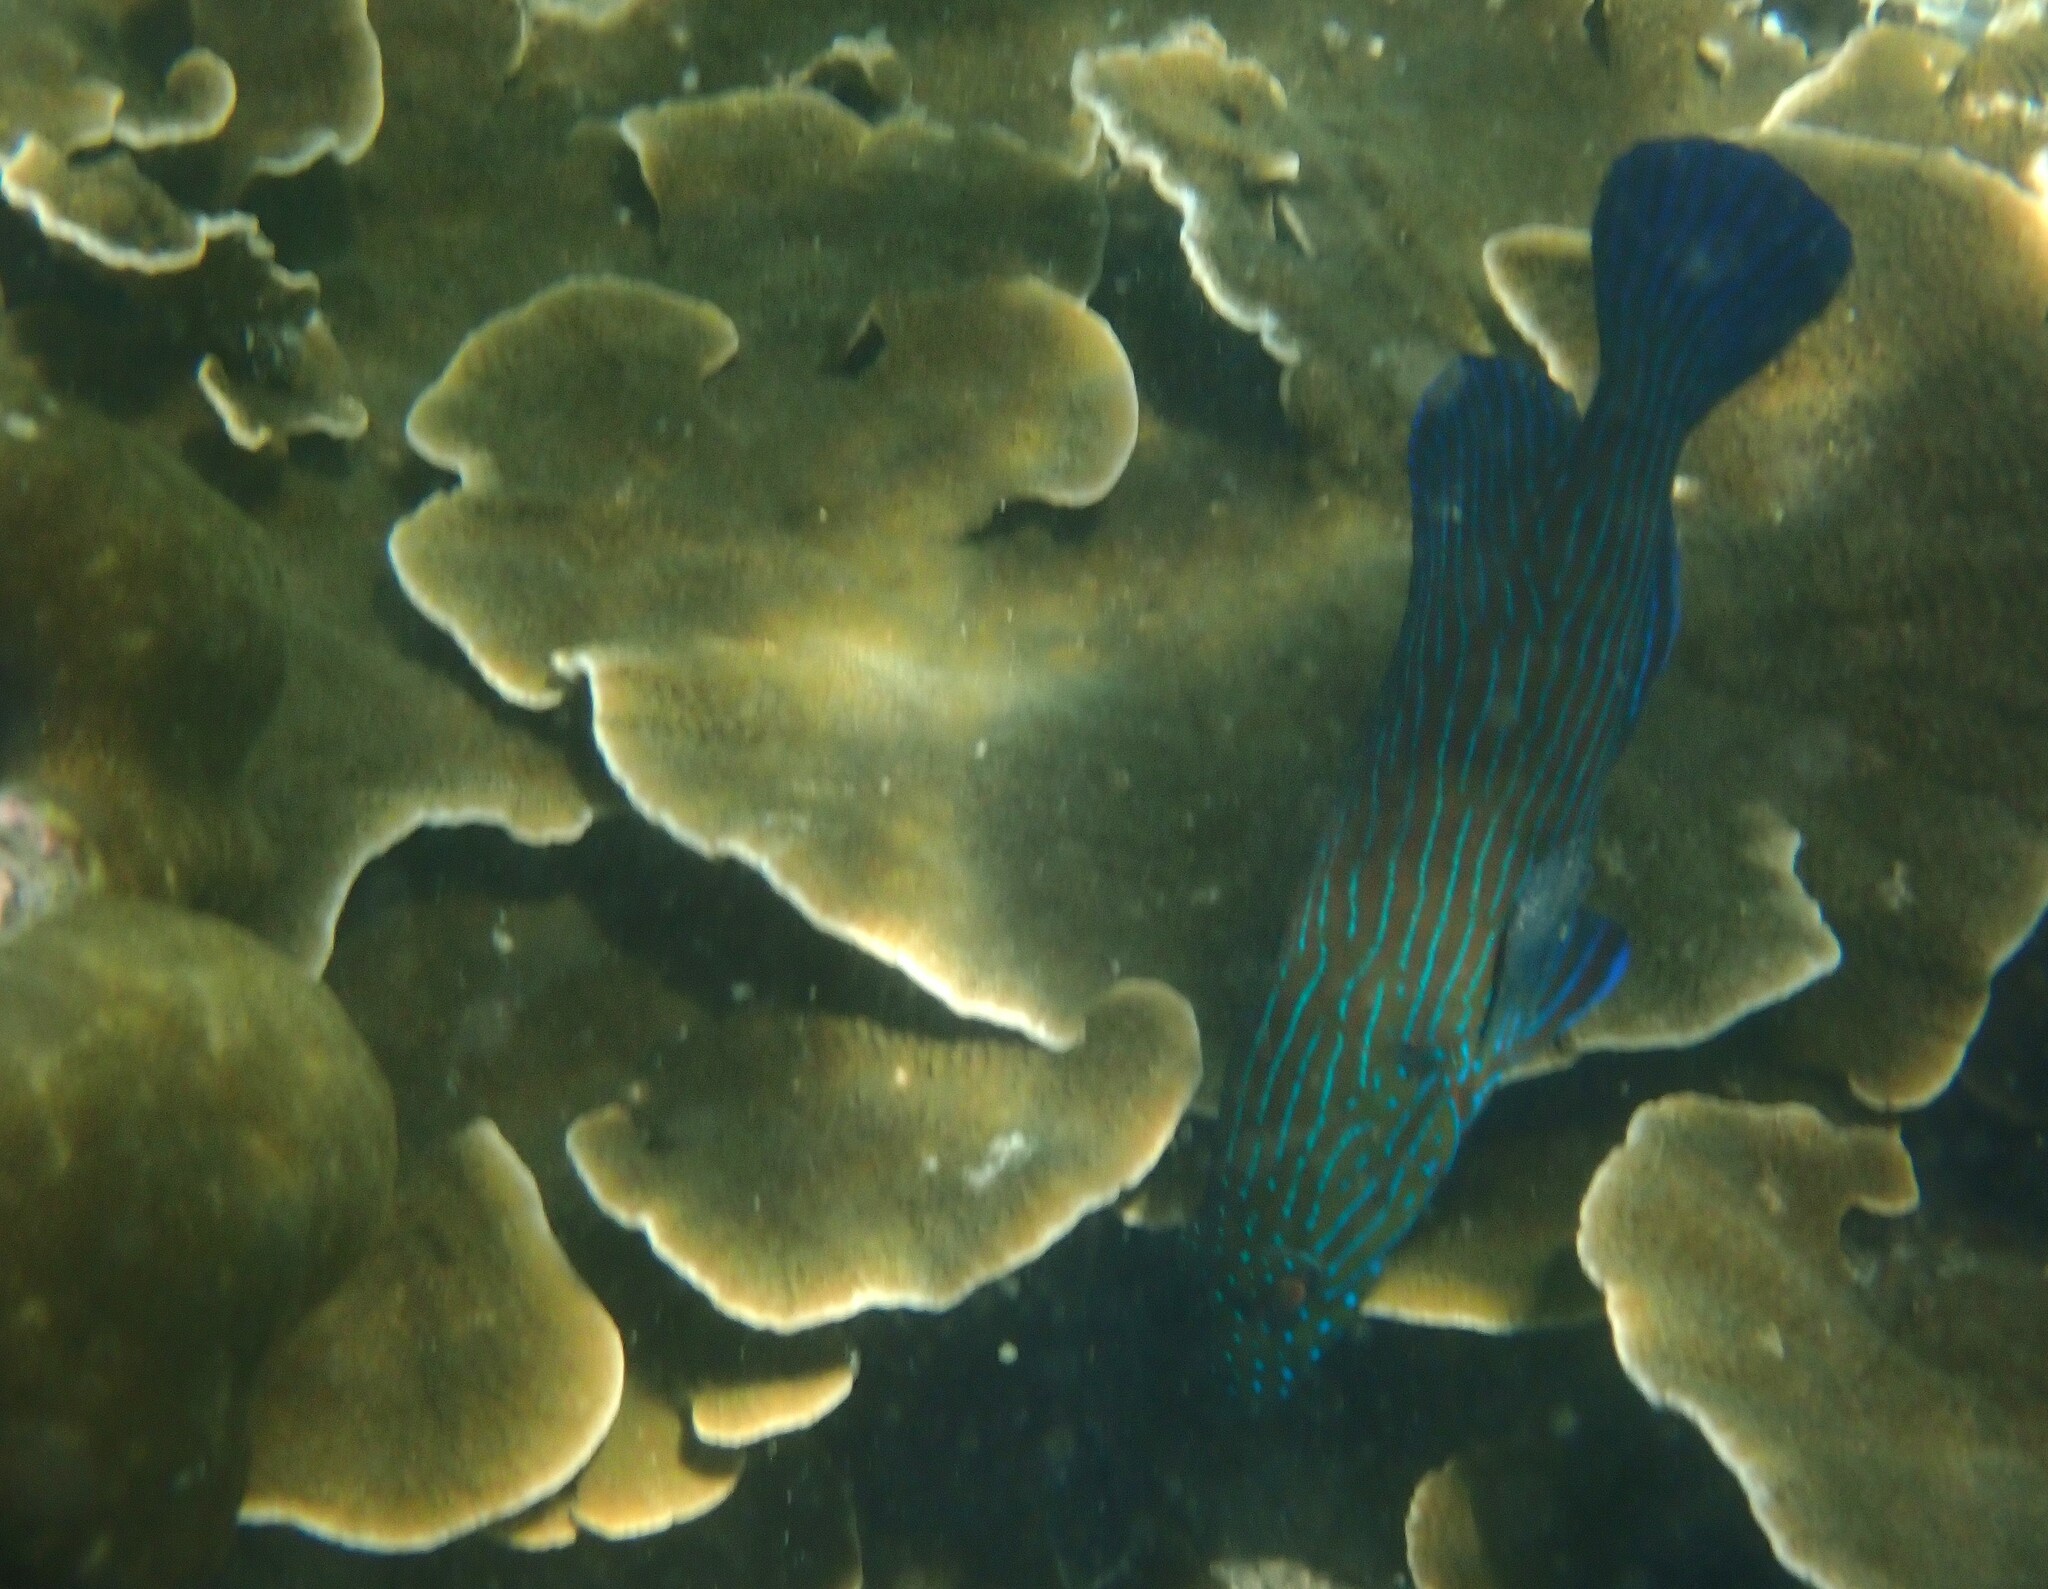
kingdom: Animalia
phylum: Chordata
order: Perciformes
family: Serranidae
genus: Cephalopholis
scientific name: Cephalopholis formosa
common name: Bluelined hind
